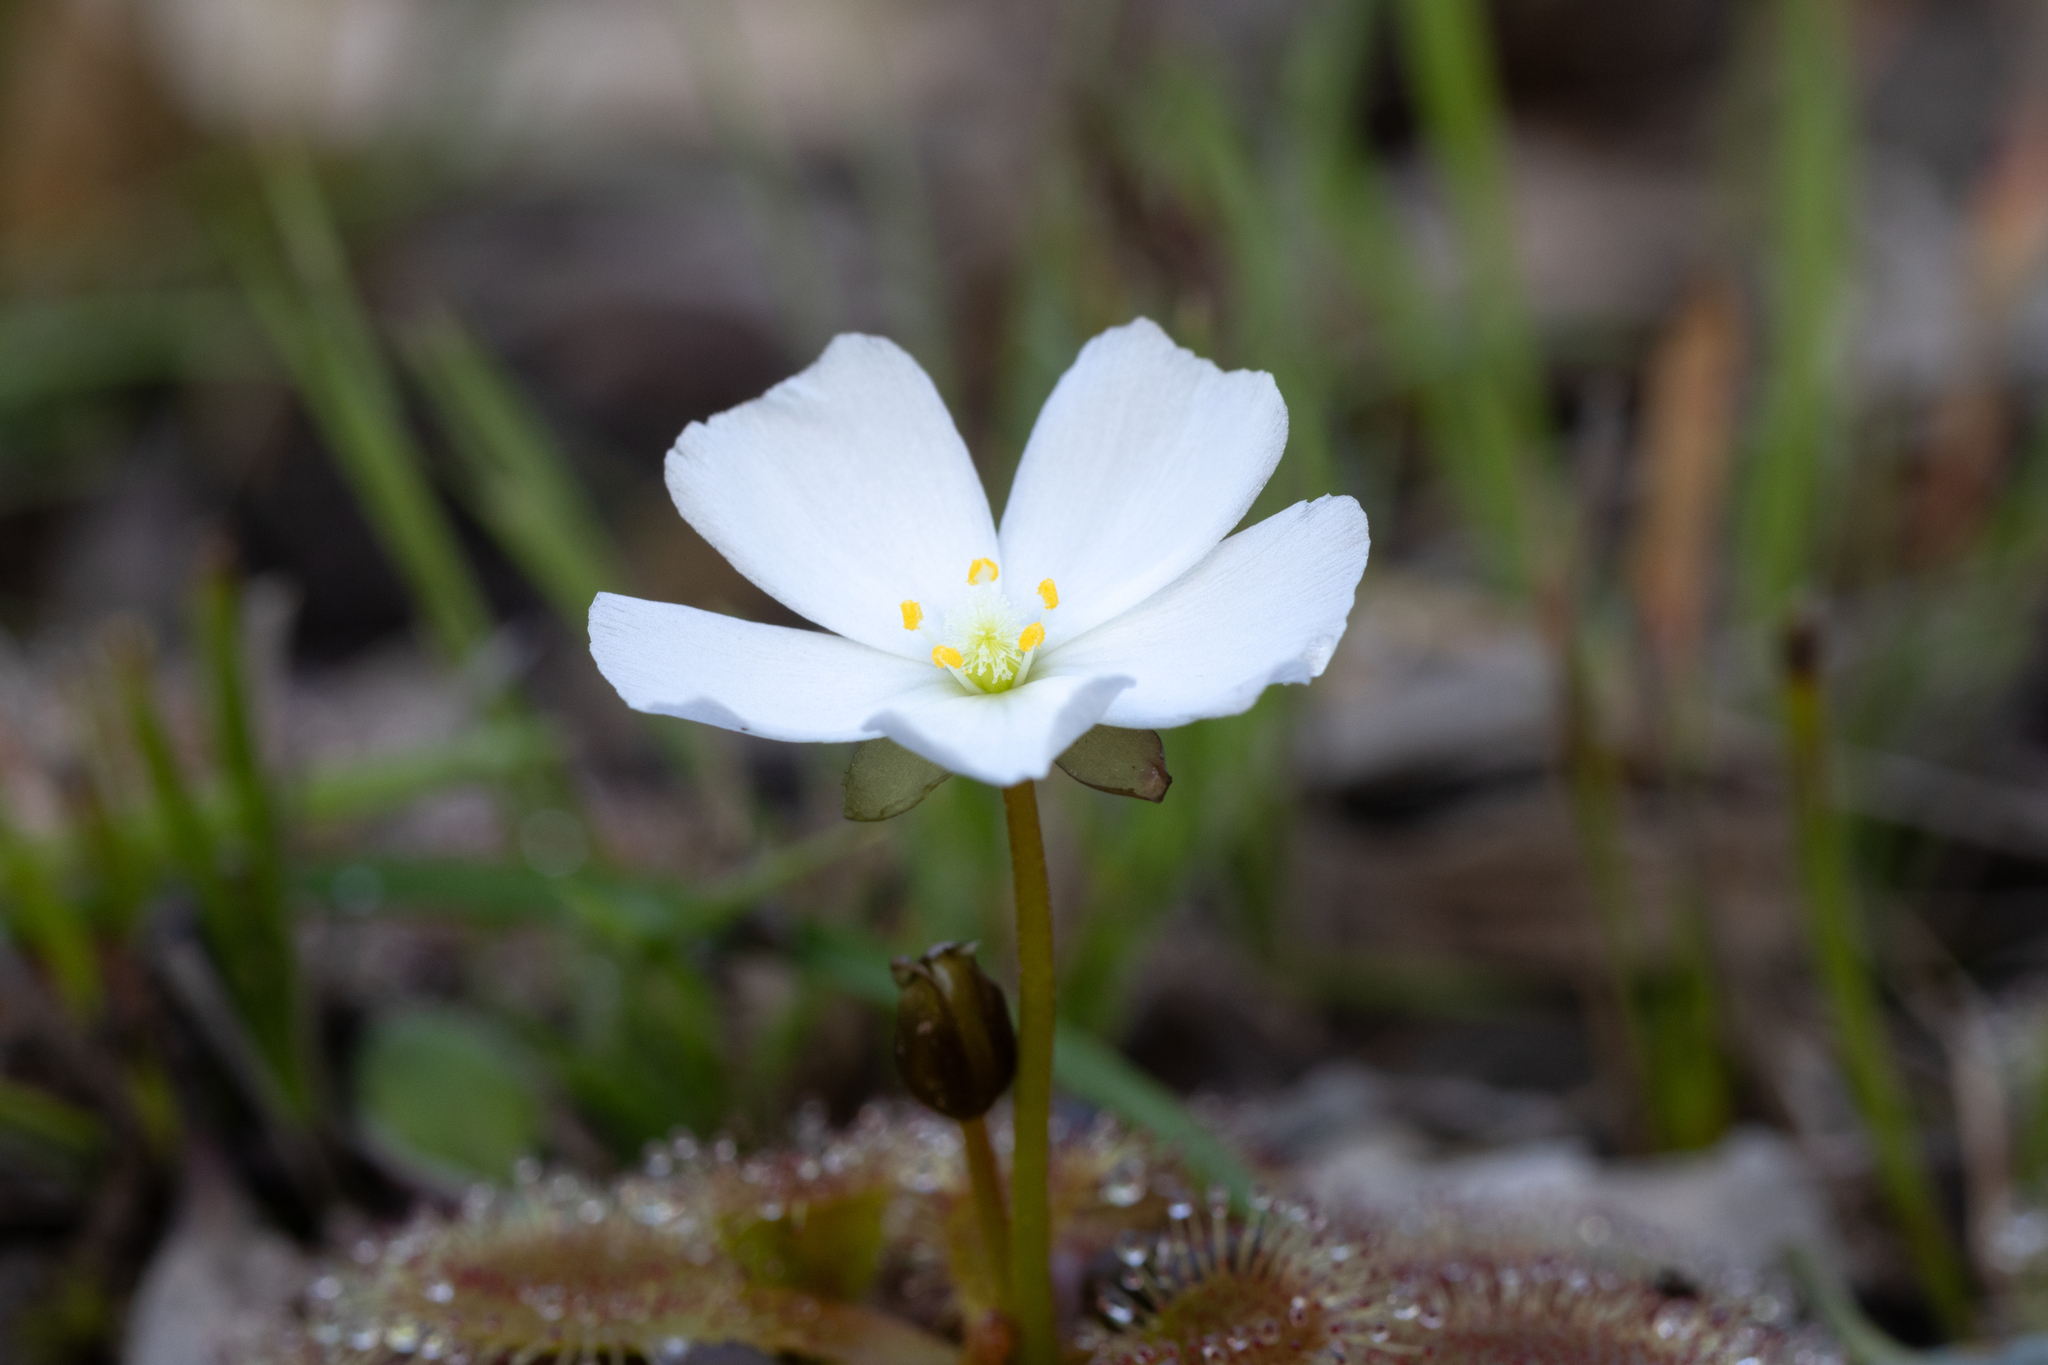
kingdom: Plantae
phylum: Tracheophyta
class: Magnoliopsida
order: Caryophyllales
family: Droseraceae
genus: Drosera
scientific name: Drosera whittakeri
